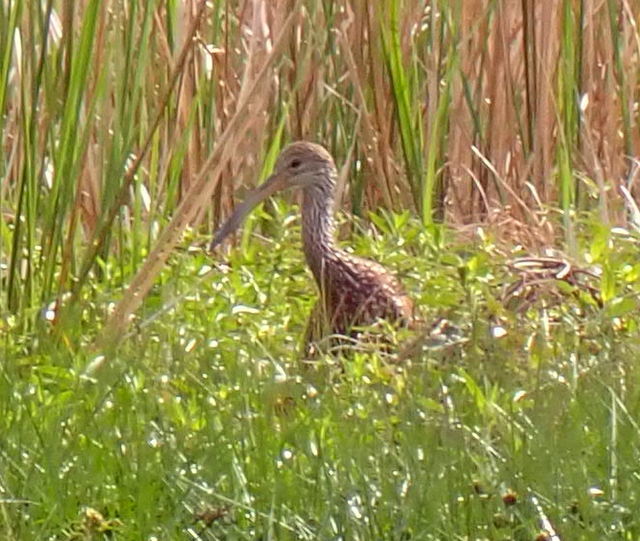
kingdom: Animalia
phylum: Chordata
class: Aves
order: Gruiformes
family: Aramidae
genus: Aramus
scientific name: Aramus guarauna
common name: Limpkin
